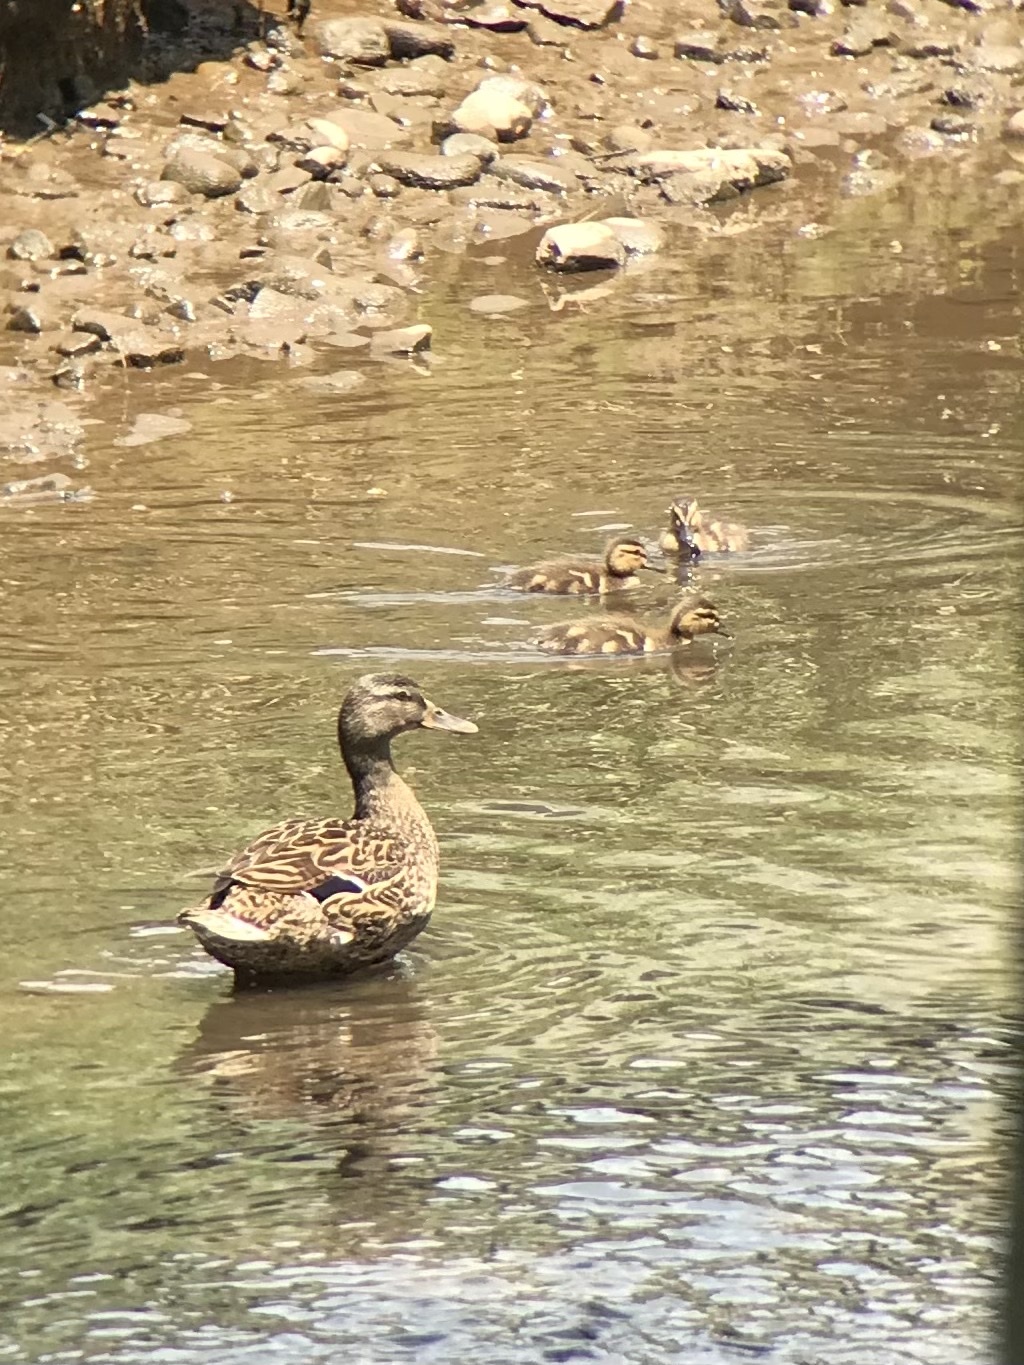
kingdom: Animalia
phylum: Chordata
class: Aves
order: Anseriformes
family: Anatidae
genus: Anas
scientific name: Anas platyrhynchos
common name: Mallard
